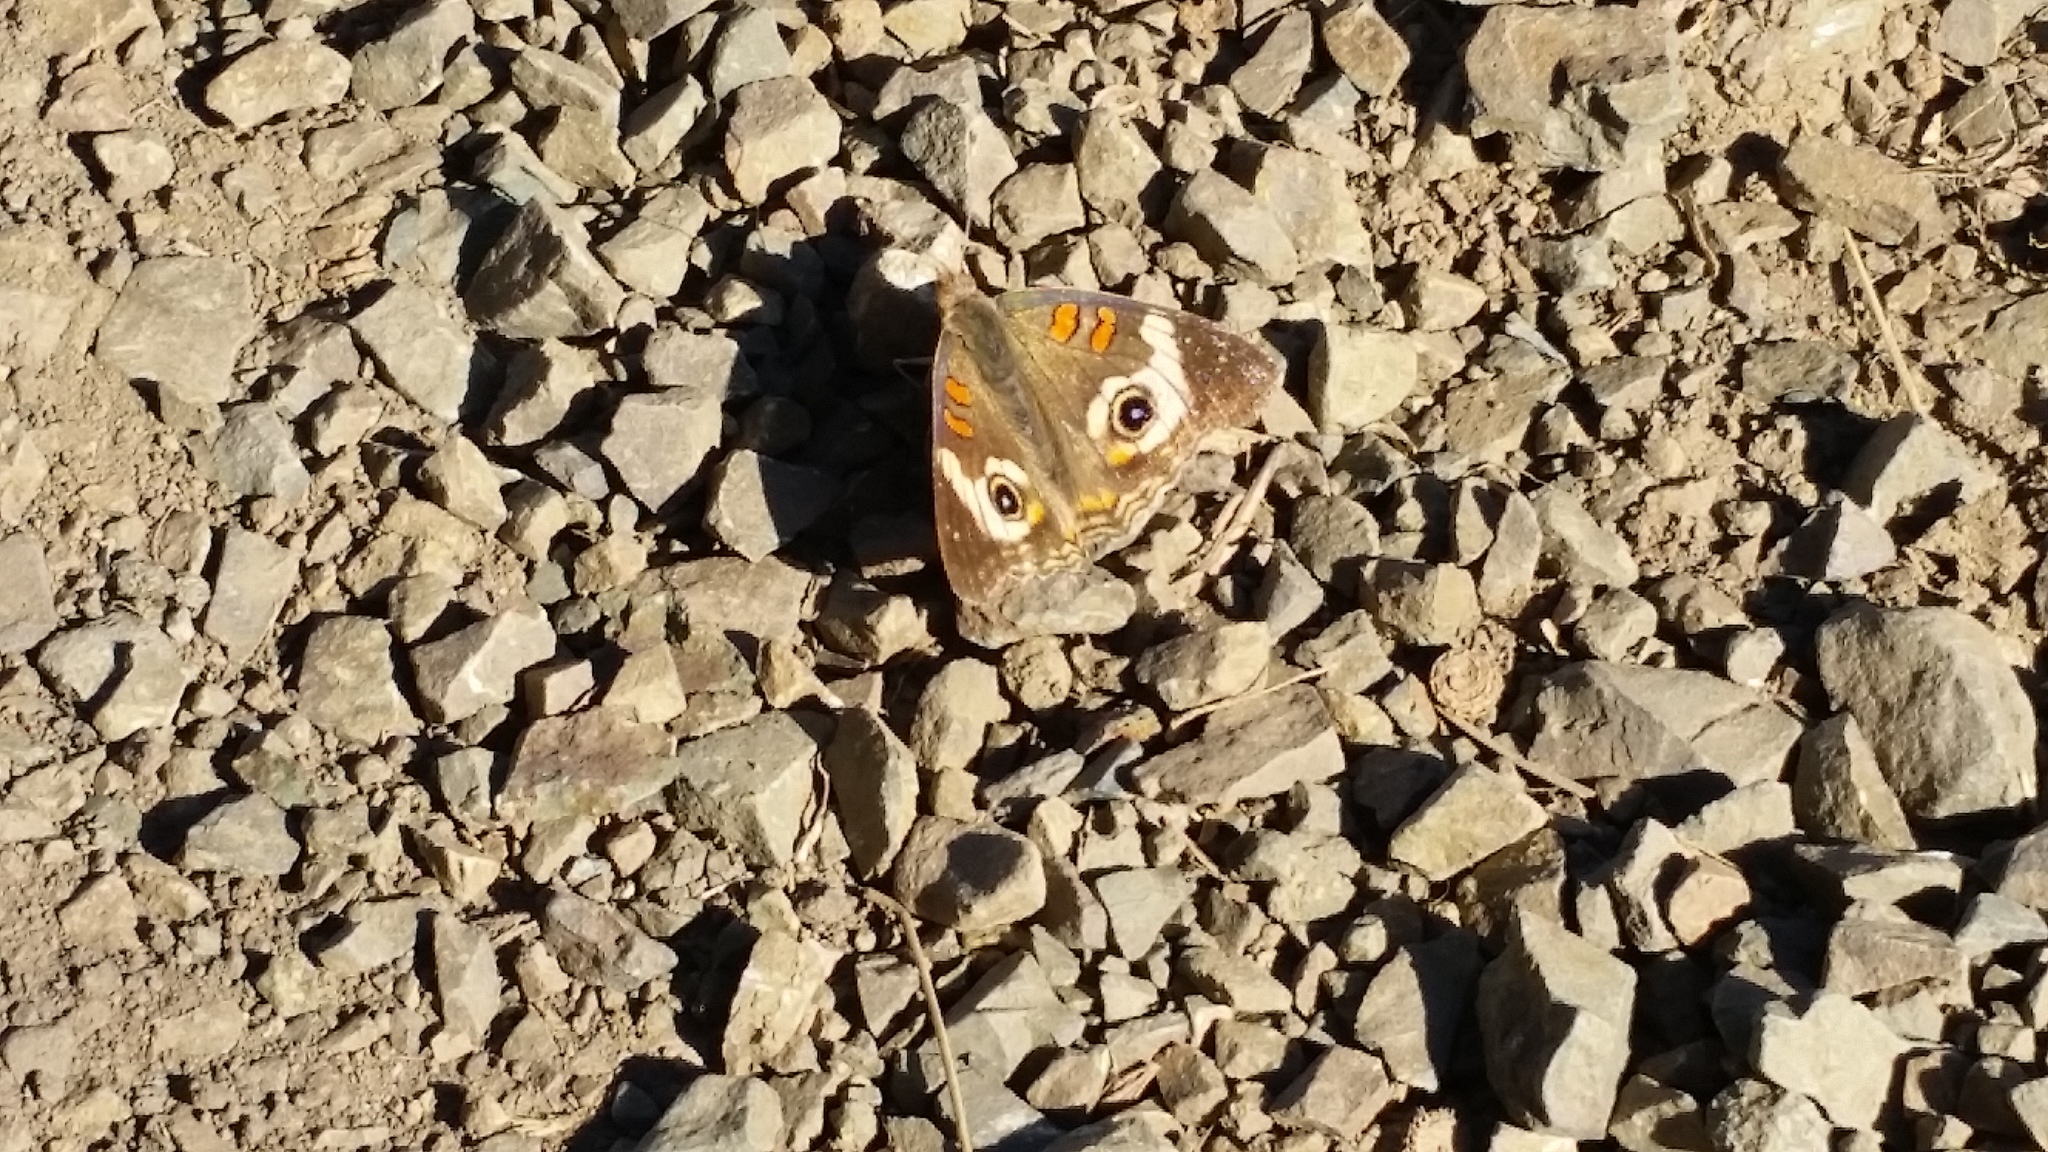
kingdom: Animalia
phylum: Arthropoda
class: Insecta
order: Lepidoptera
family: Nymphalidae
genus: Junonia
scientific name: Junonia grisea
